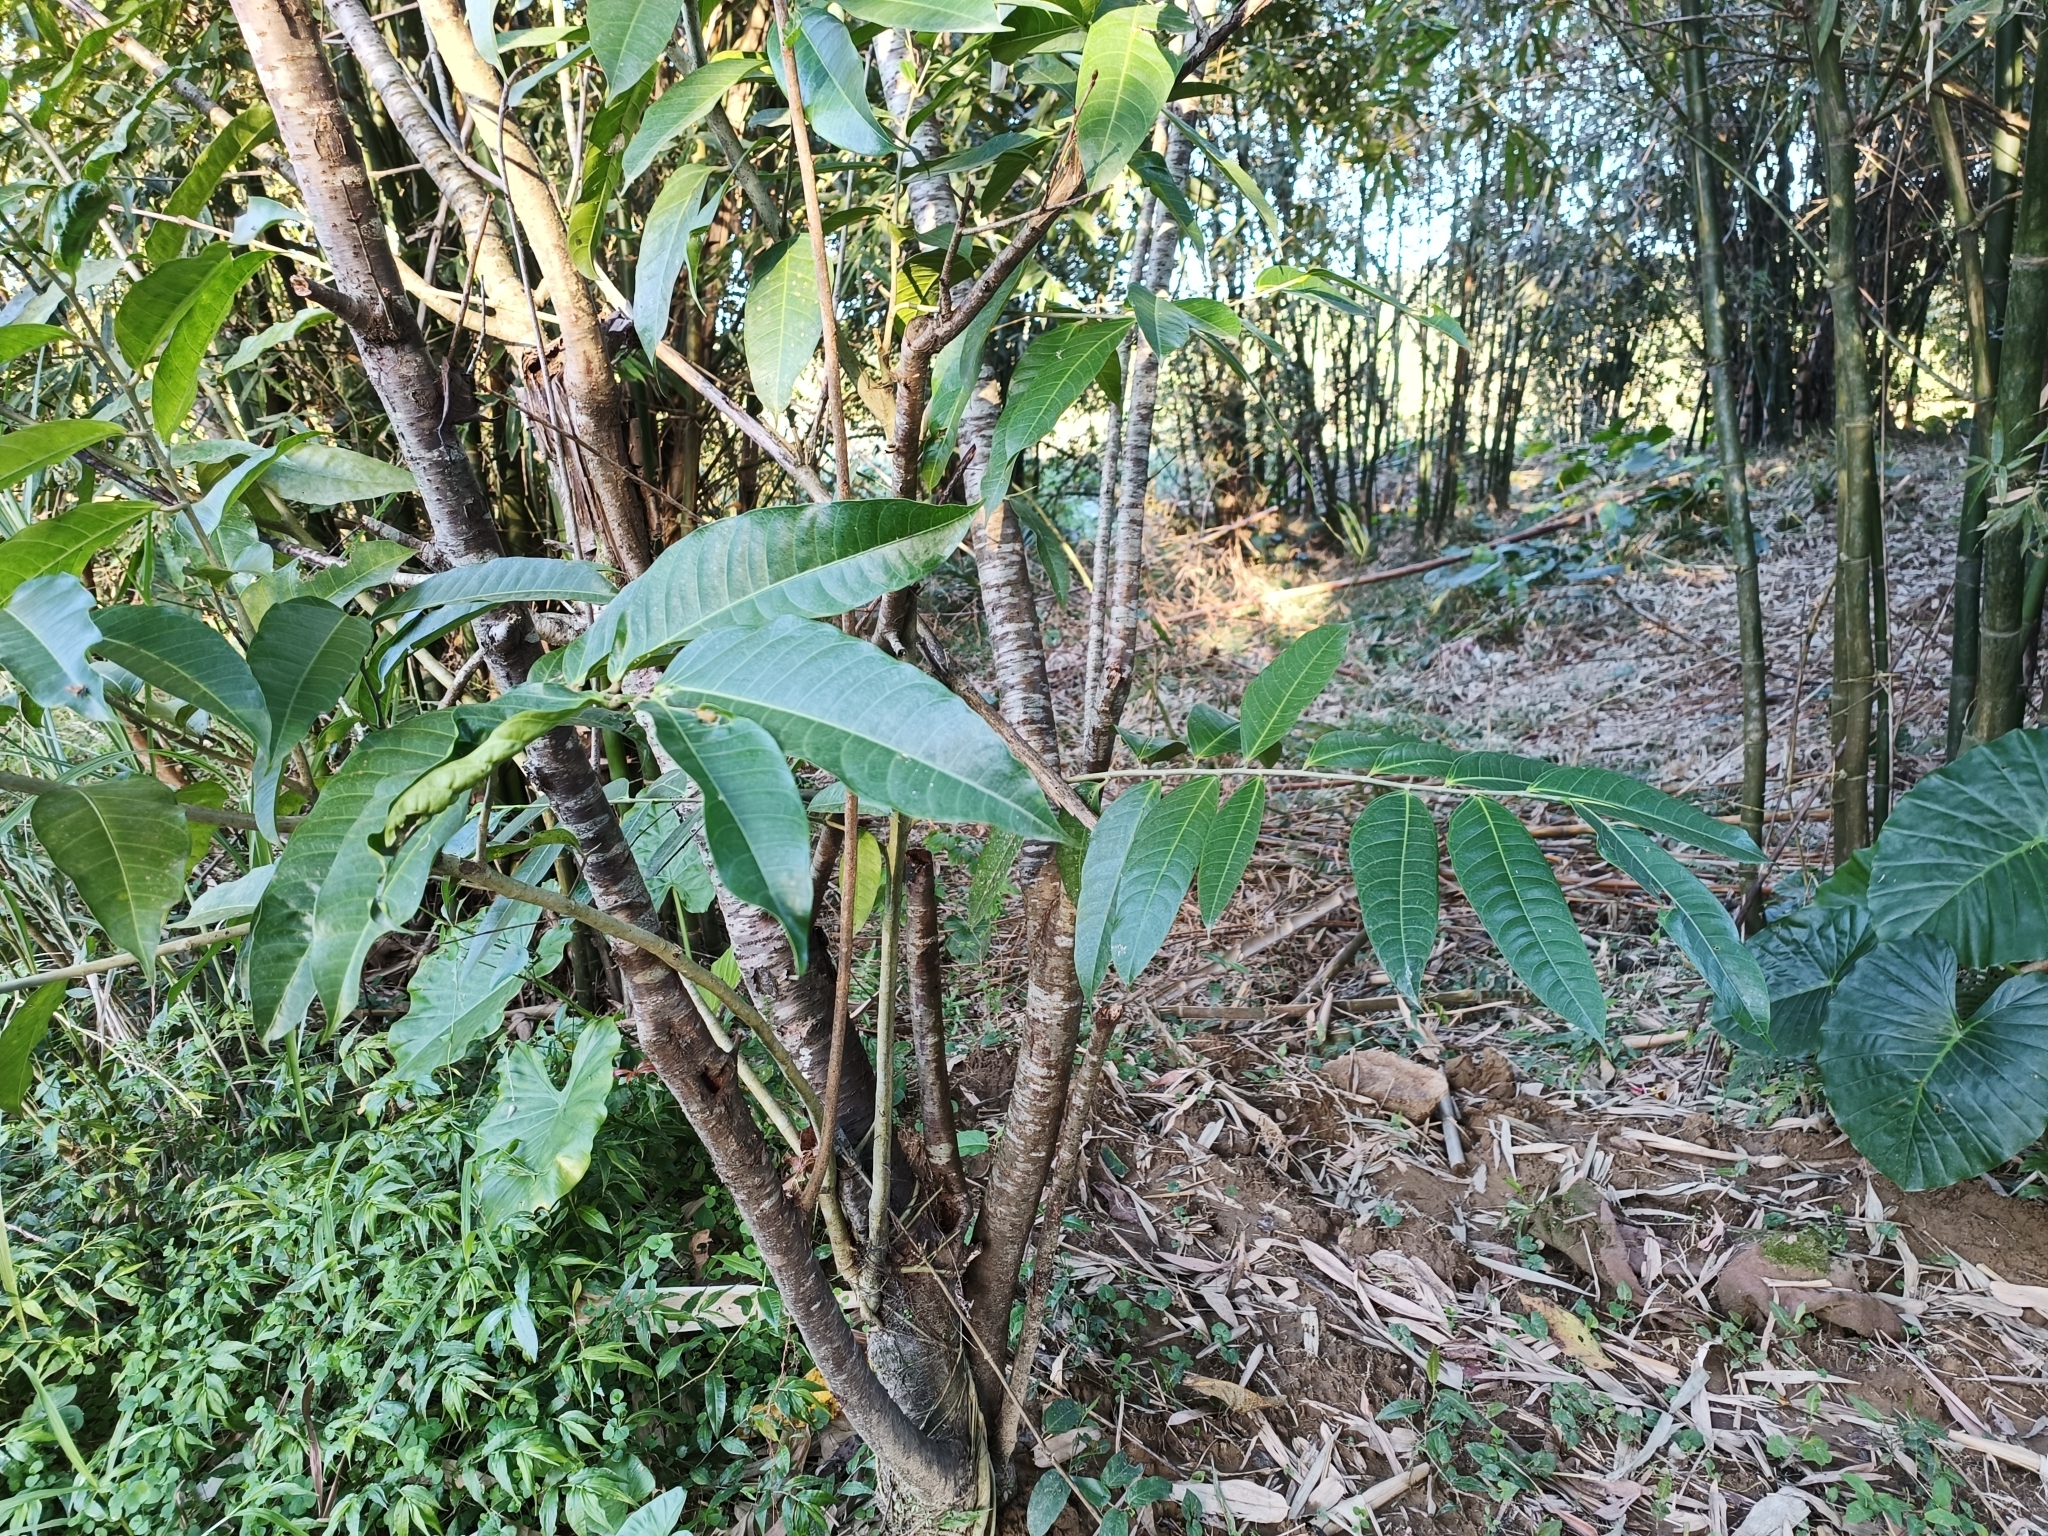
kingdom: Plantae
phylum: Tracheophyta
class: Magnoliopsida
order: Rosales
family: Moraceae
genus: Ficus
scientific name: Ficus virgata
